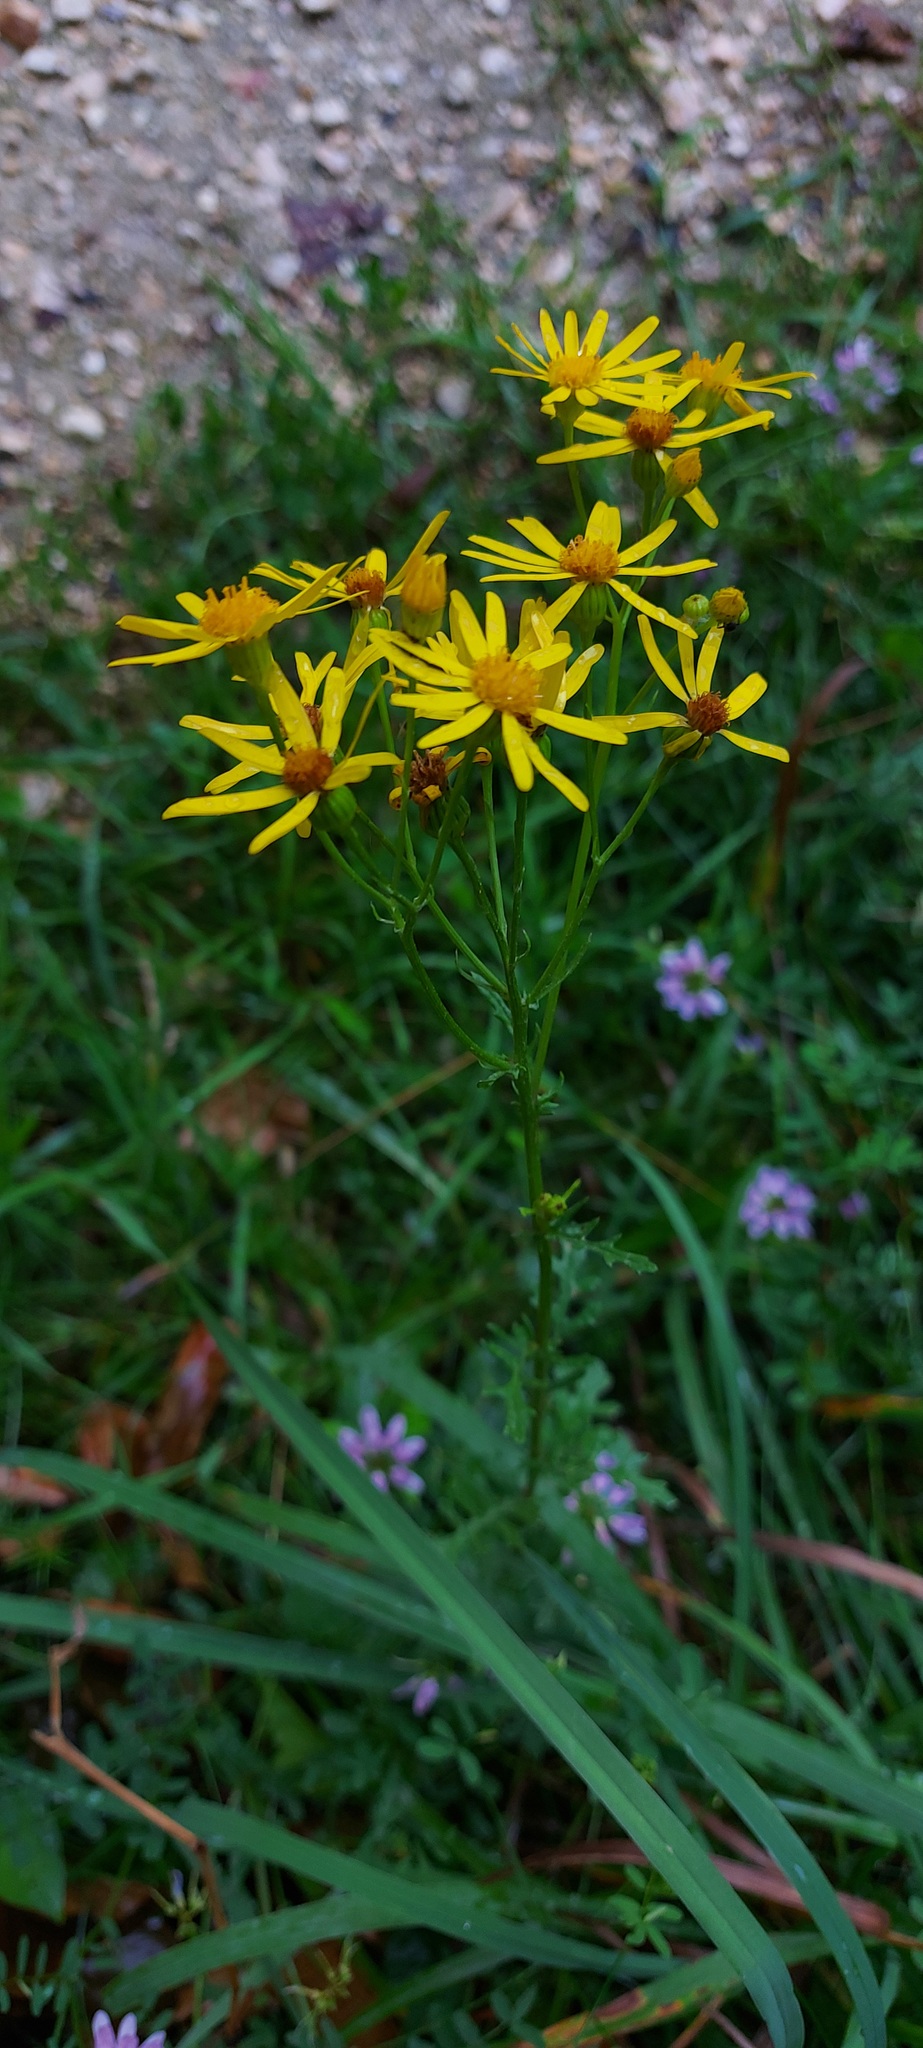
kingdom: Plantae
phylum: Tracheophyta
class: Magnoliopsida
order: Asterales
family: Asteraceae
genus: Jacobaea
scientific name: Jacobaea vulgaris
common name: Stinking willie
